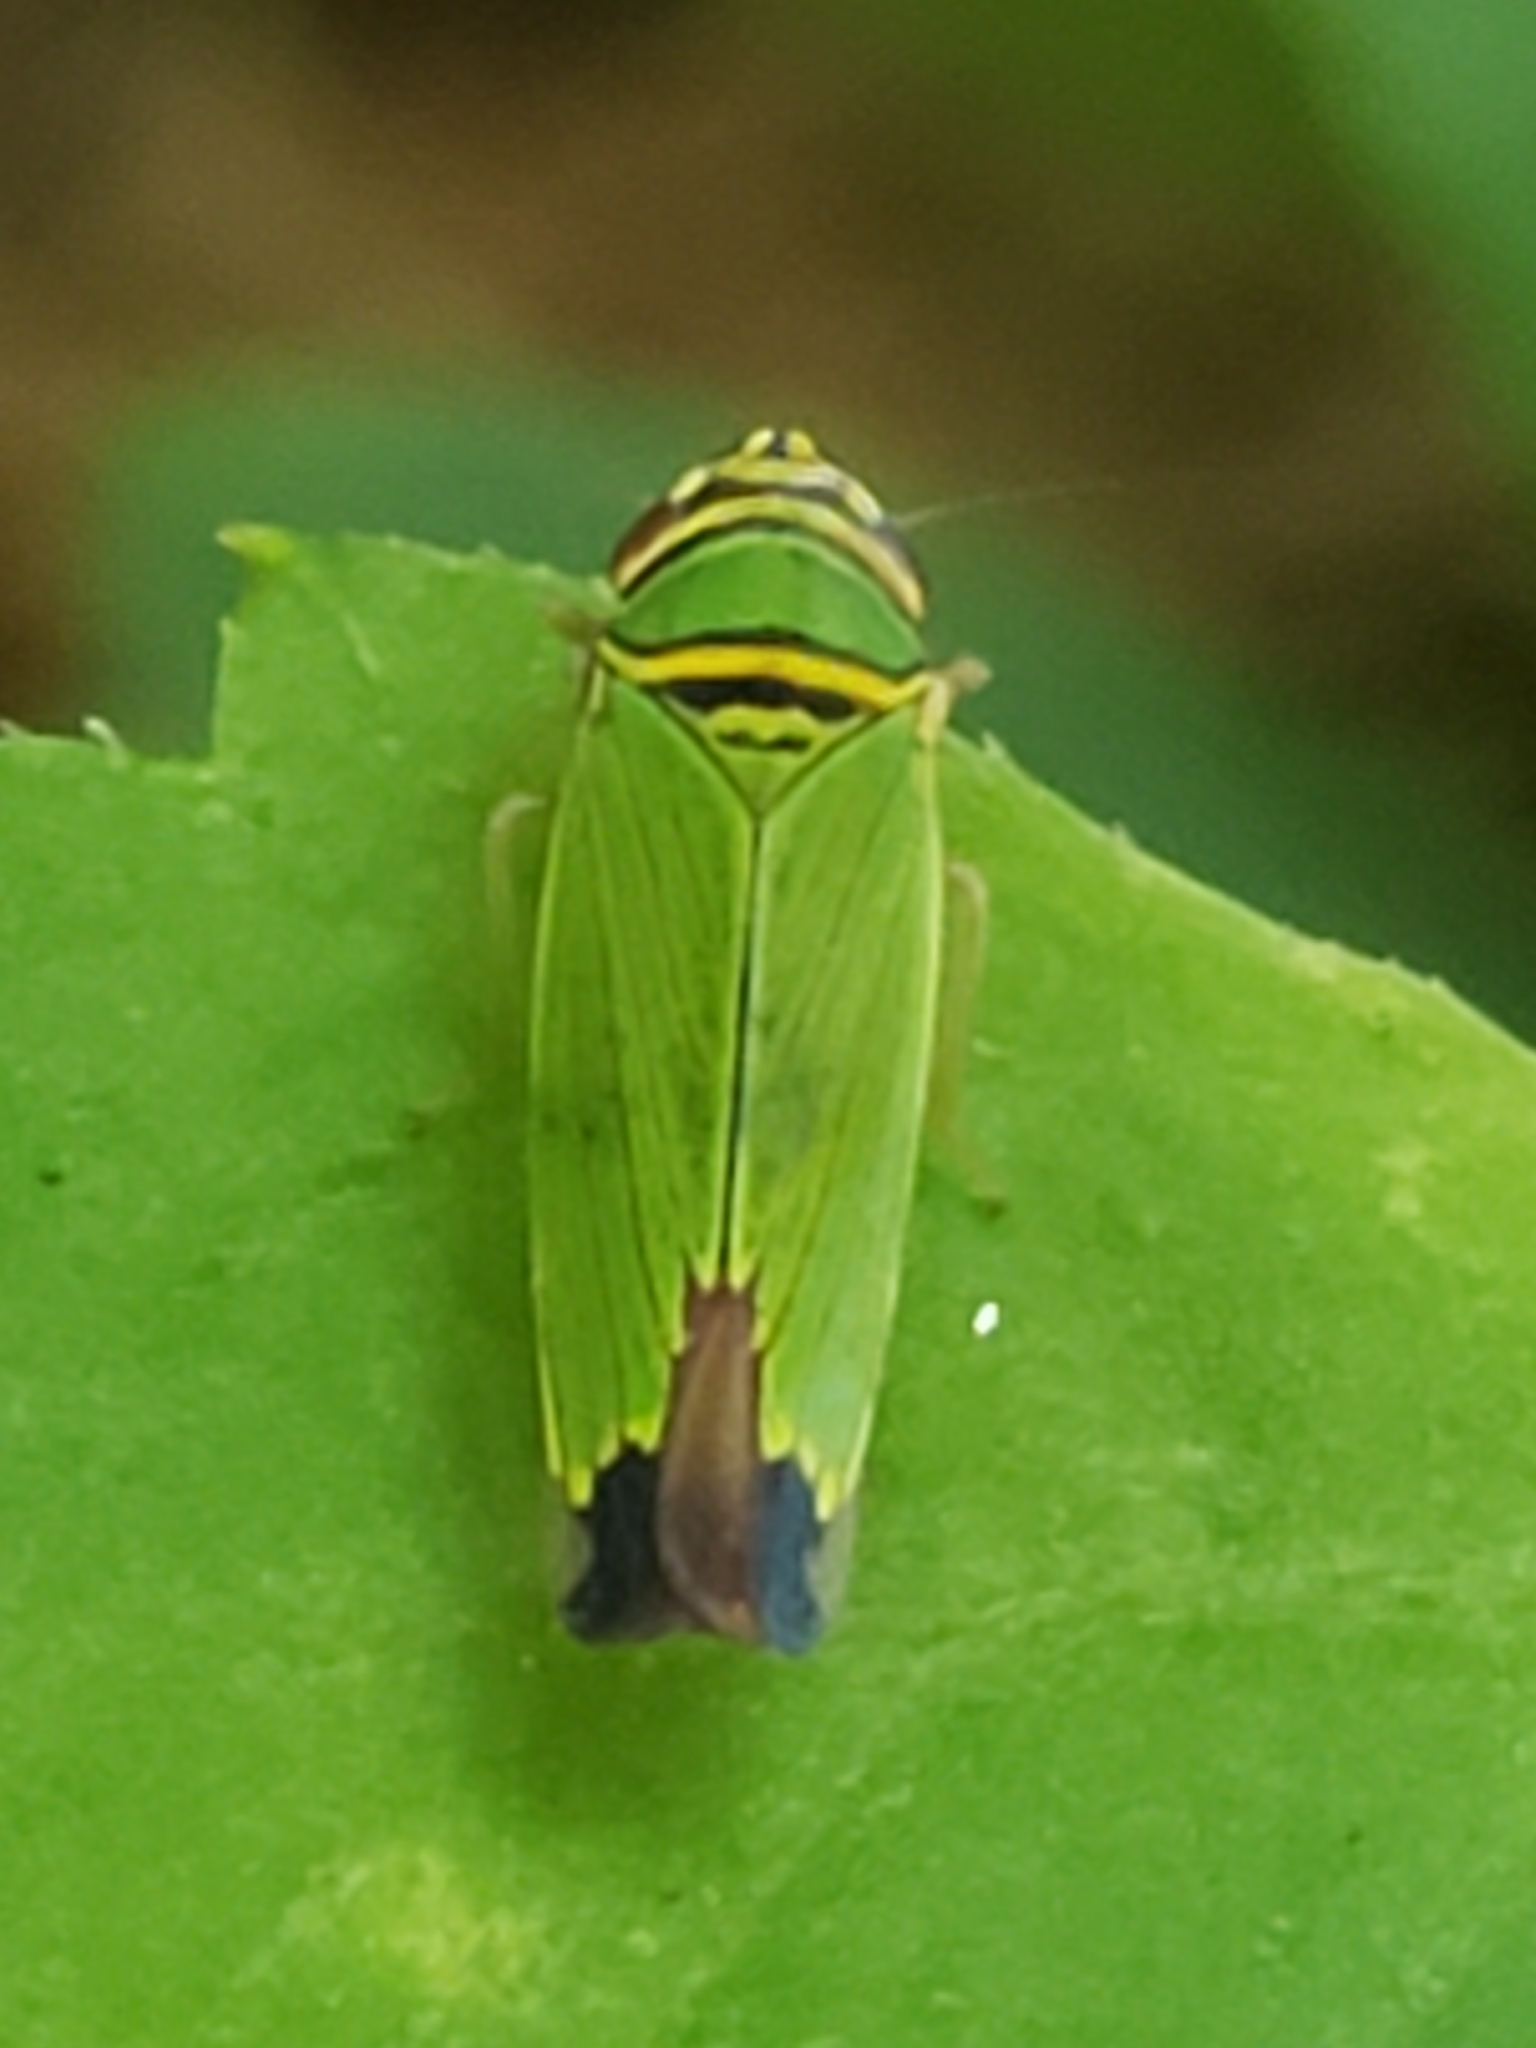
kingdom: Animalia
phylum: Arthropoda
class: Insecta
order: Hemiptera
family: Cicadellidae
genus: Tylozygus
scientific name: Tylozygus geometricus
